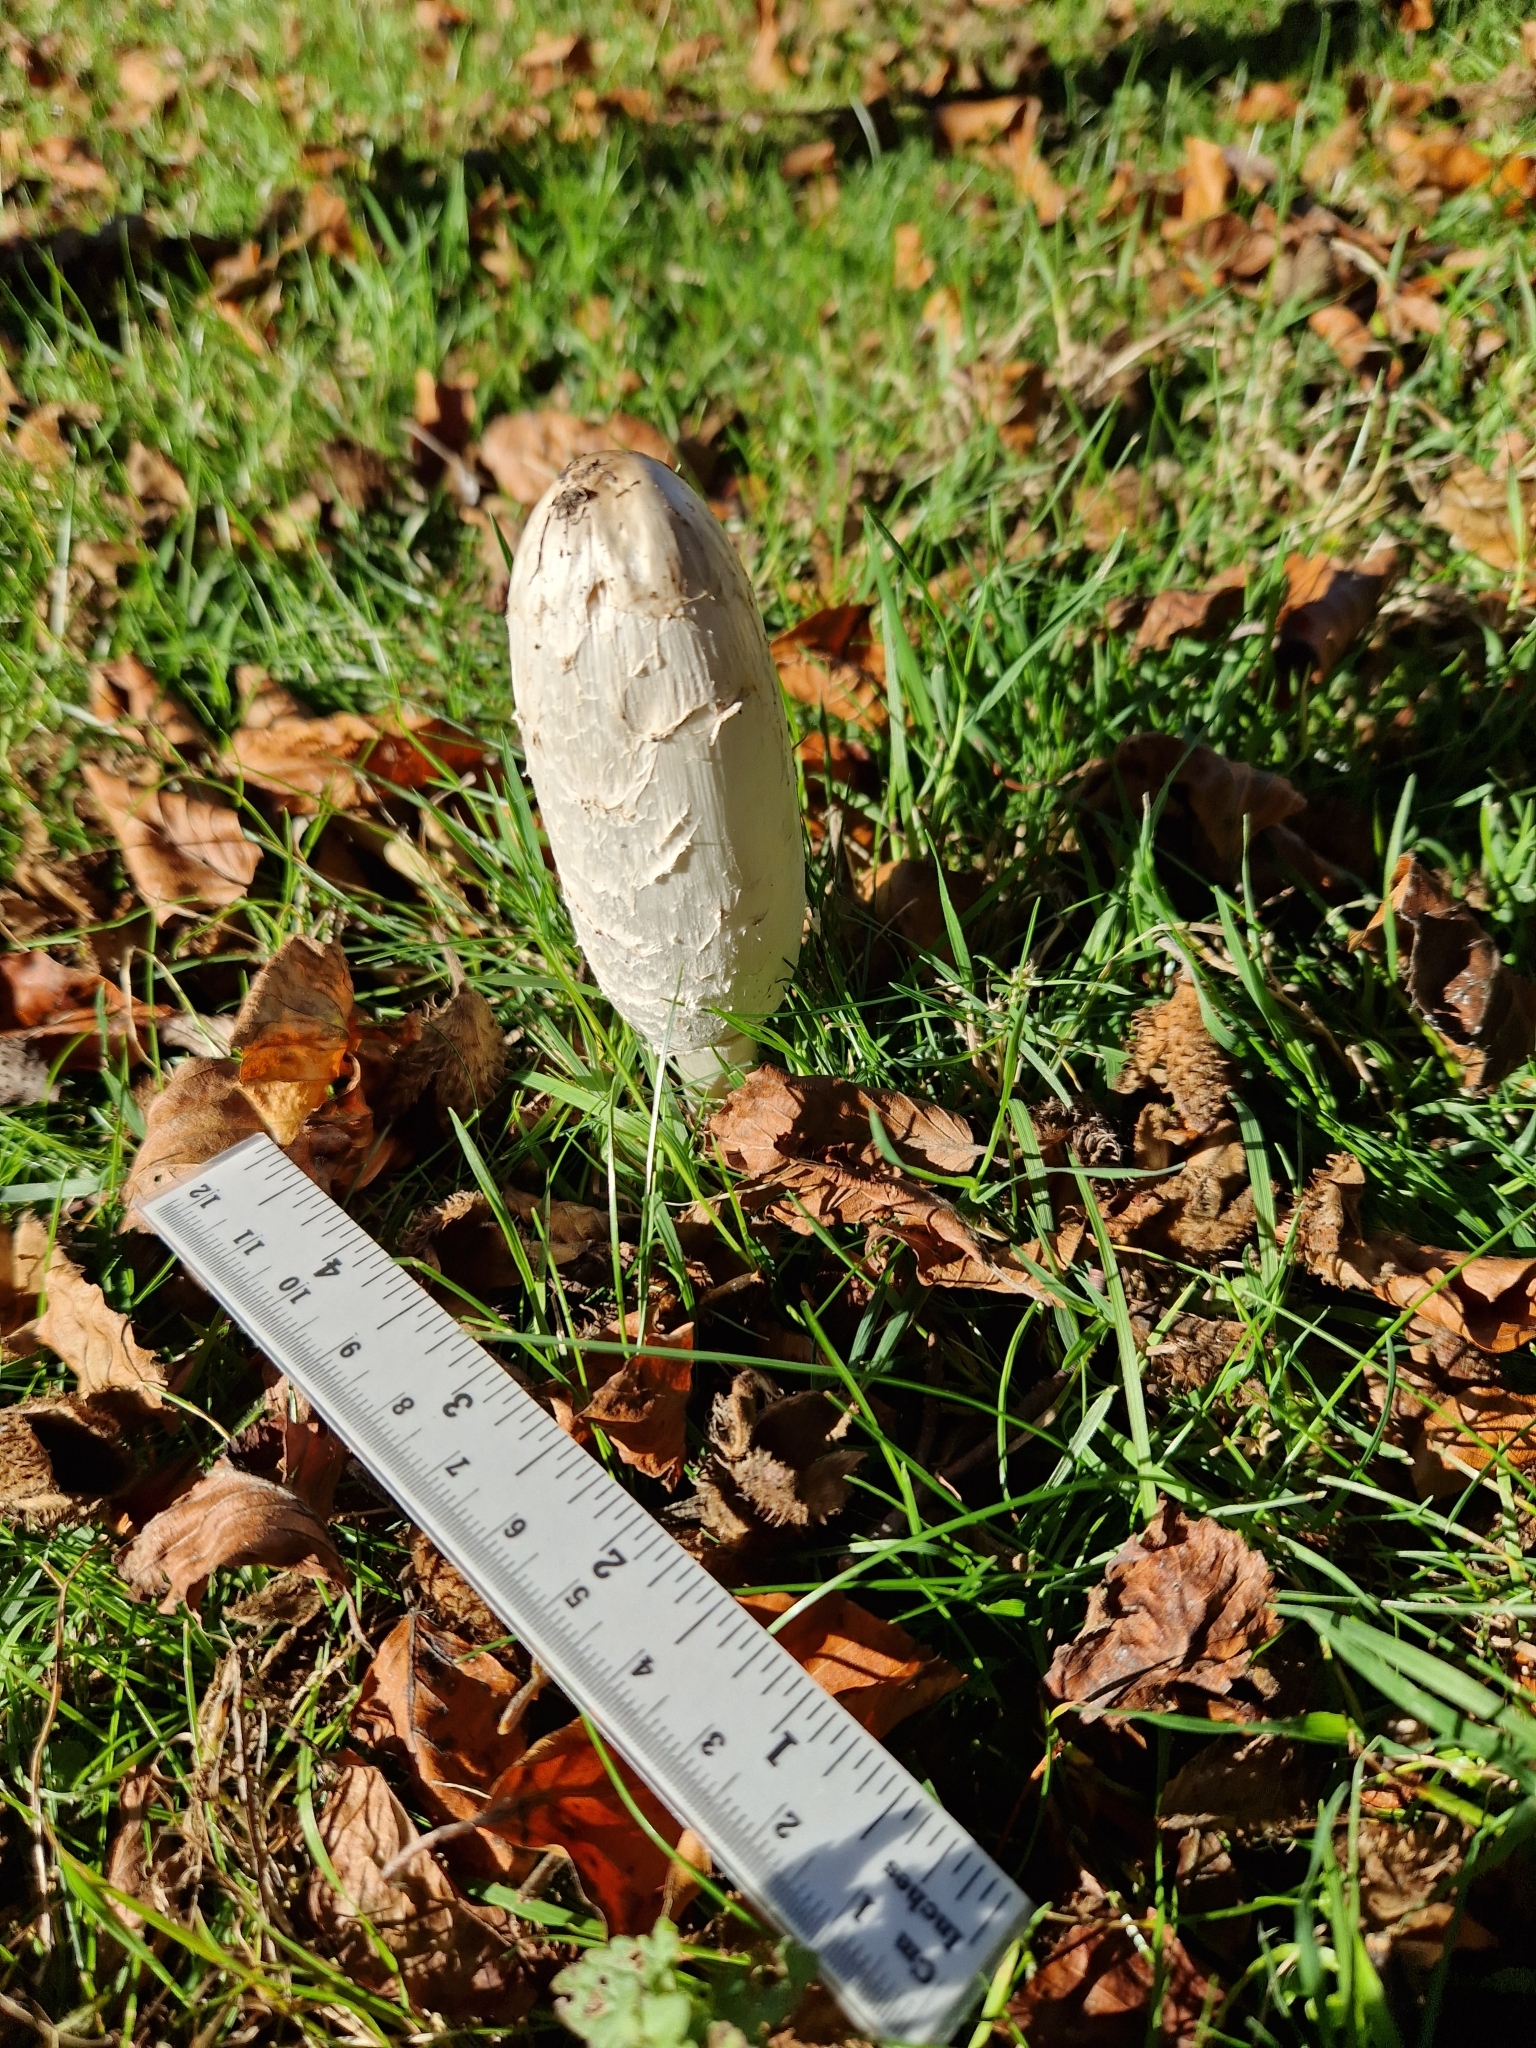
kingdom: Fungi
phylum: Basidiomycota
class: Agaricomycetes
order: Agaricales
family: Agaricaceae
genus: Coprinus
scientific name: Coprinus comatus
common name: Lawyer's wig
